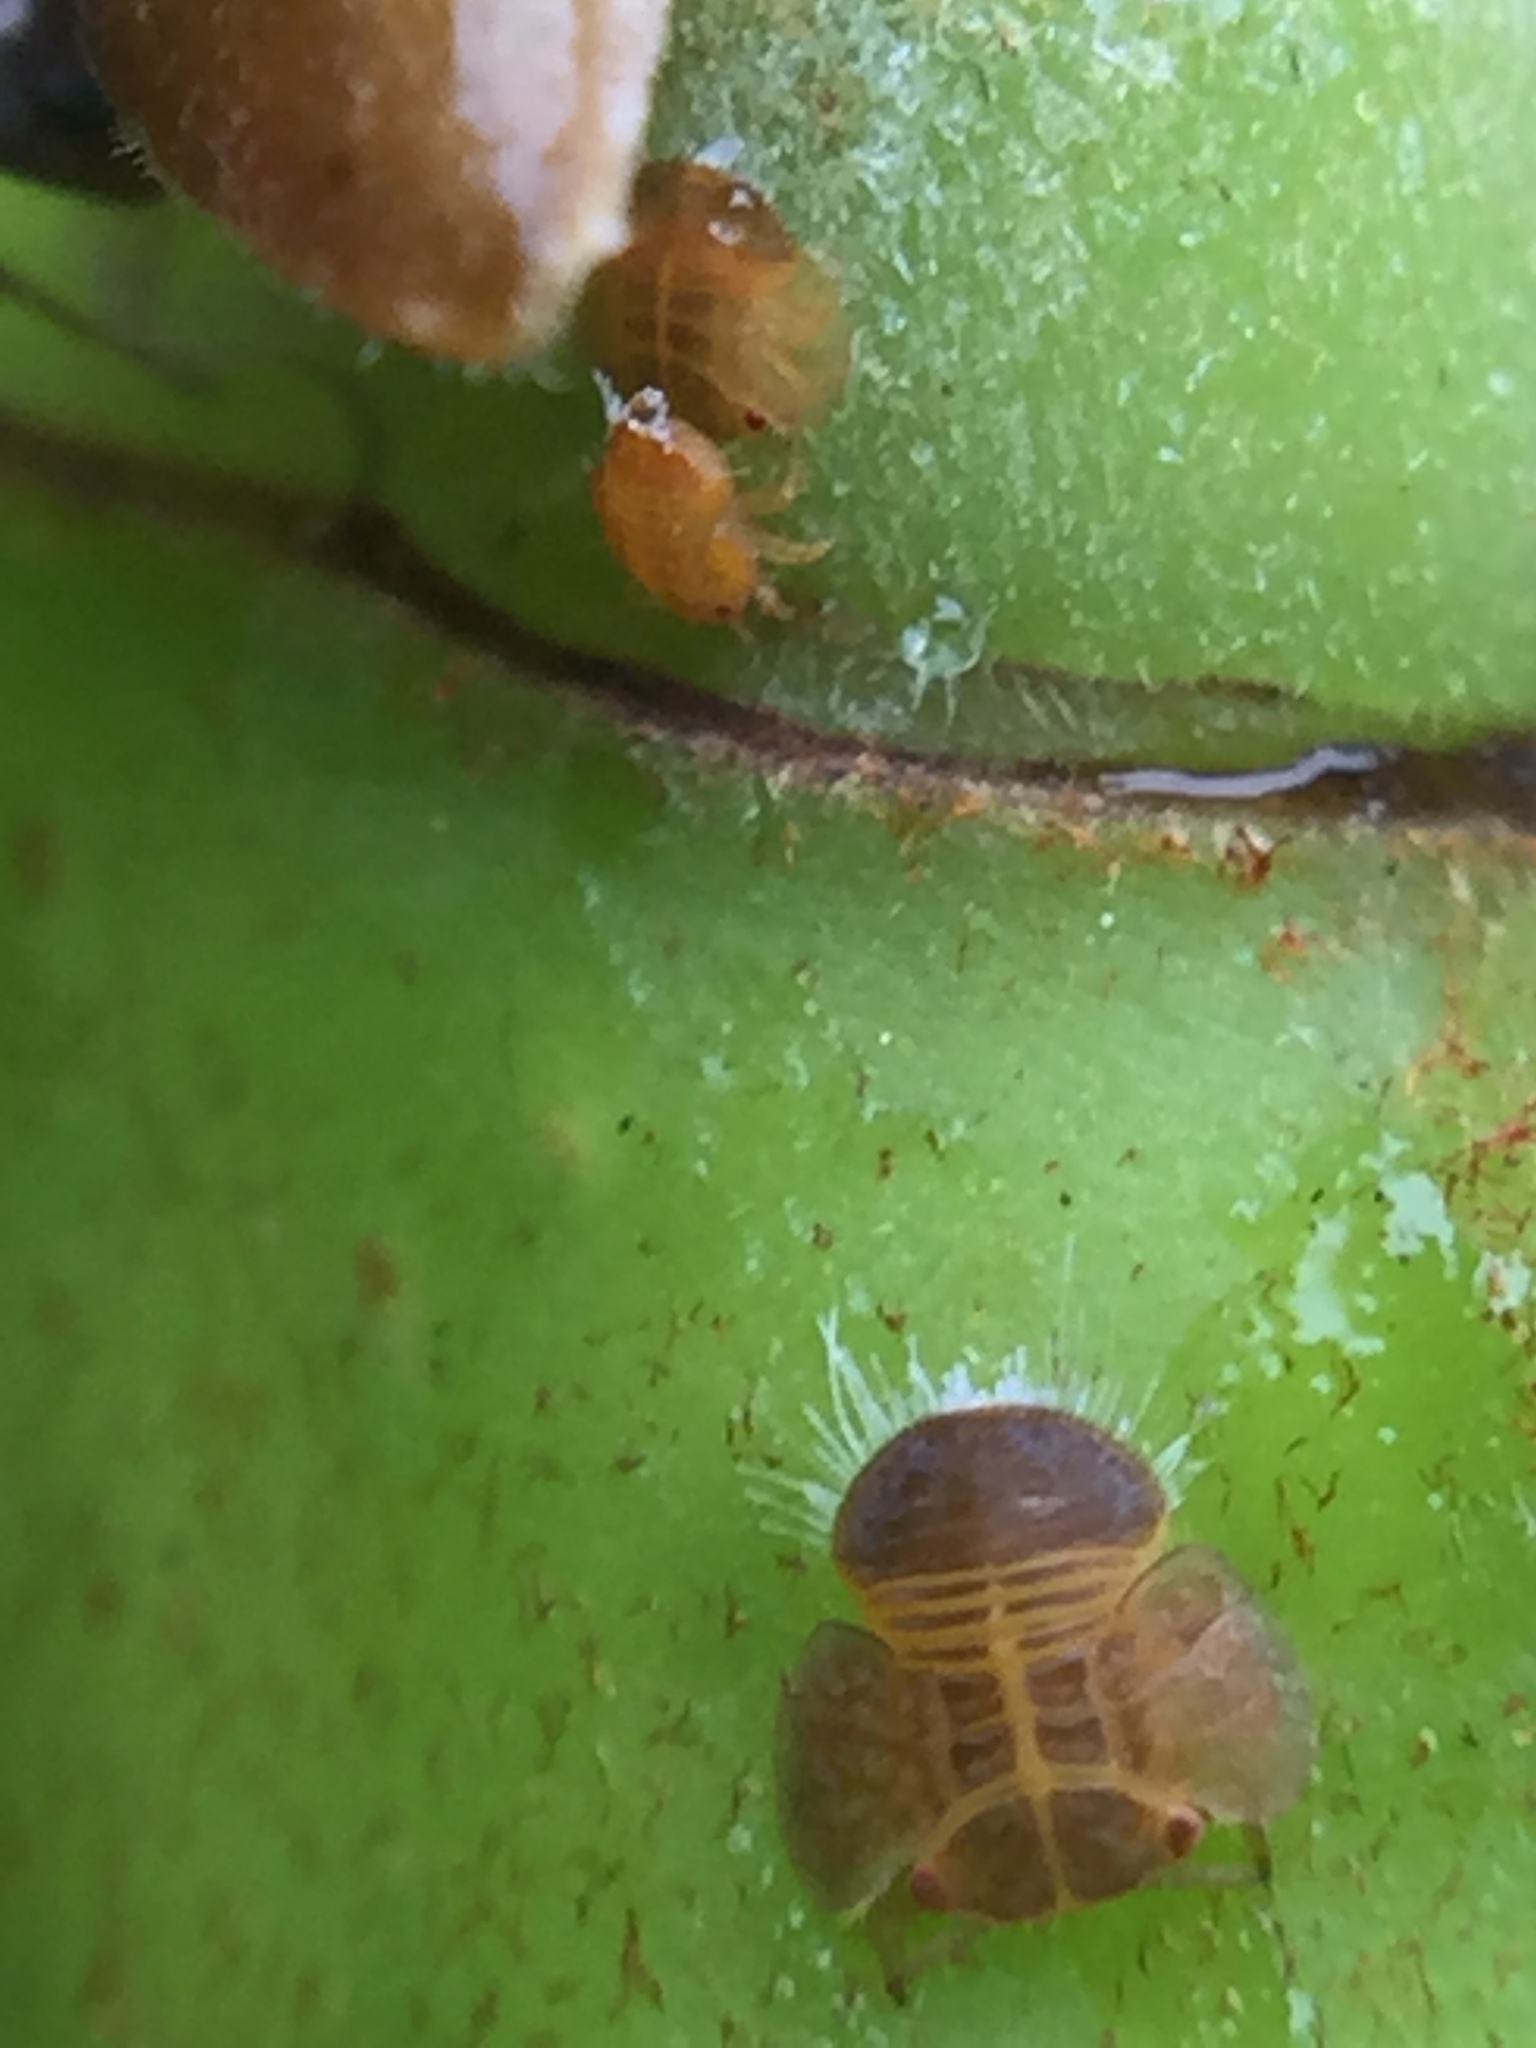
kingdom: Animalia
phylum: Arthropoda
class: Insecta
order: Hemiptera
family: Homotomidae
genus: Mycopsylla
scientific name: Mycopsylla obliqua
